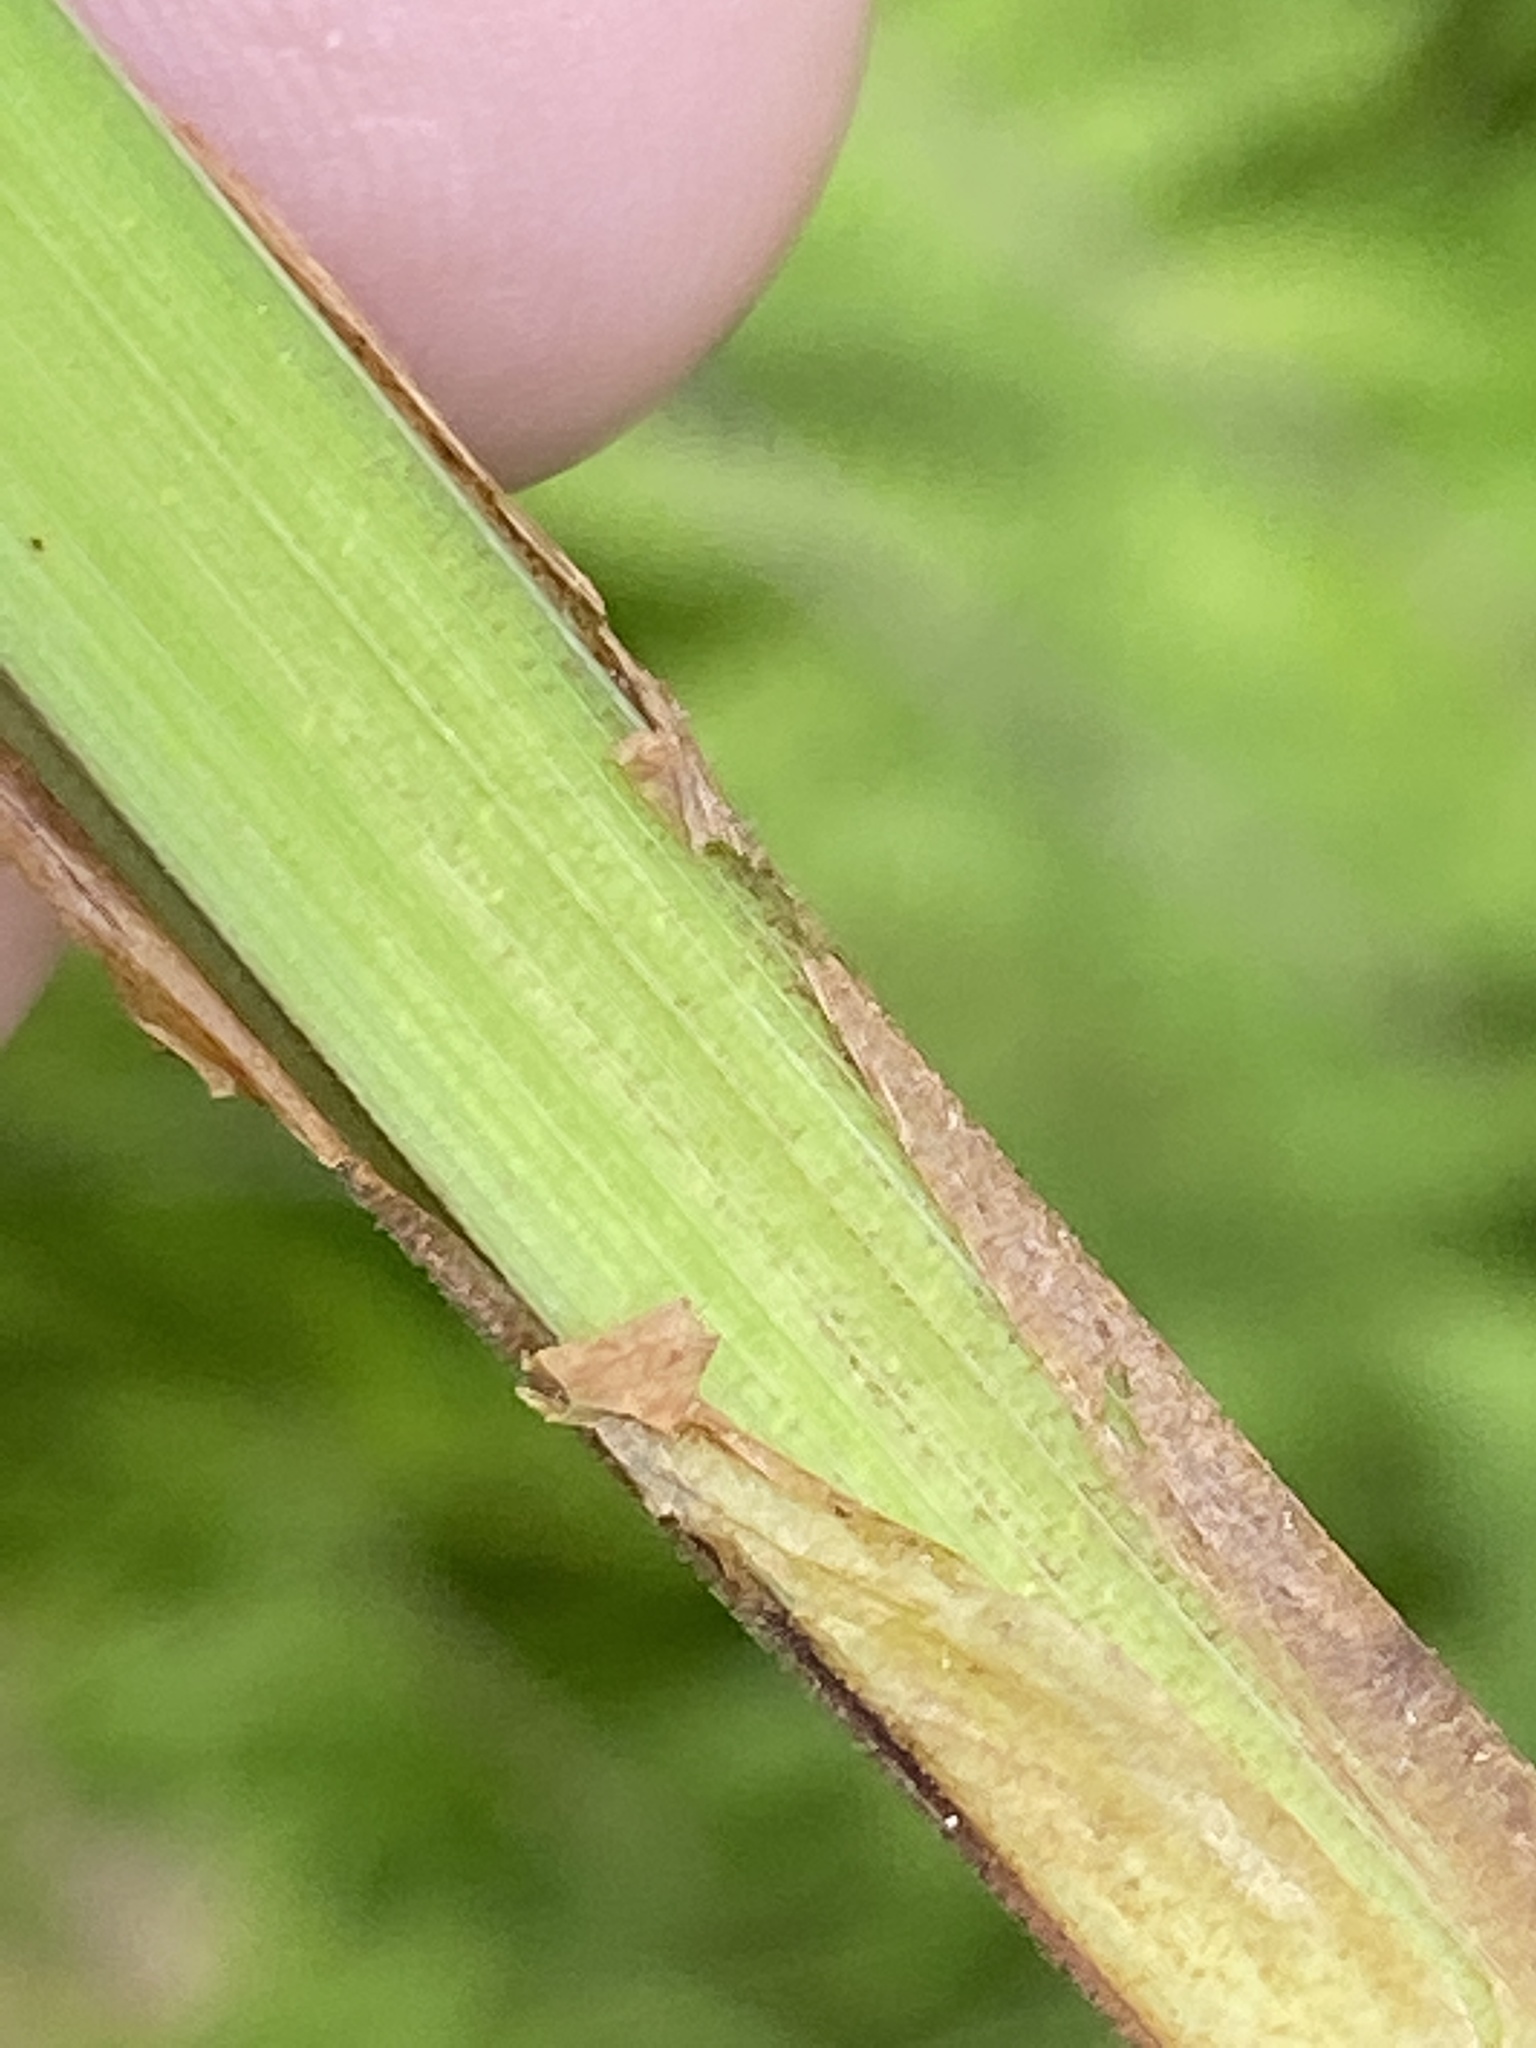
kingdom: Plantae
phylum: Tracheophyta
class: Liliopsida
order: Poales
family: Cyperaceae
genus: Carex
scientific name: Carex gynandra
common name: Nodding sedge
